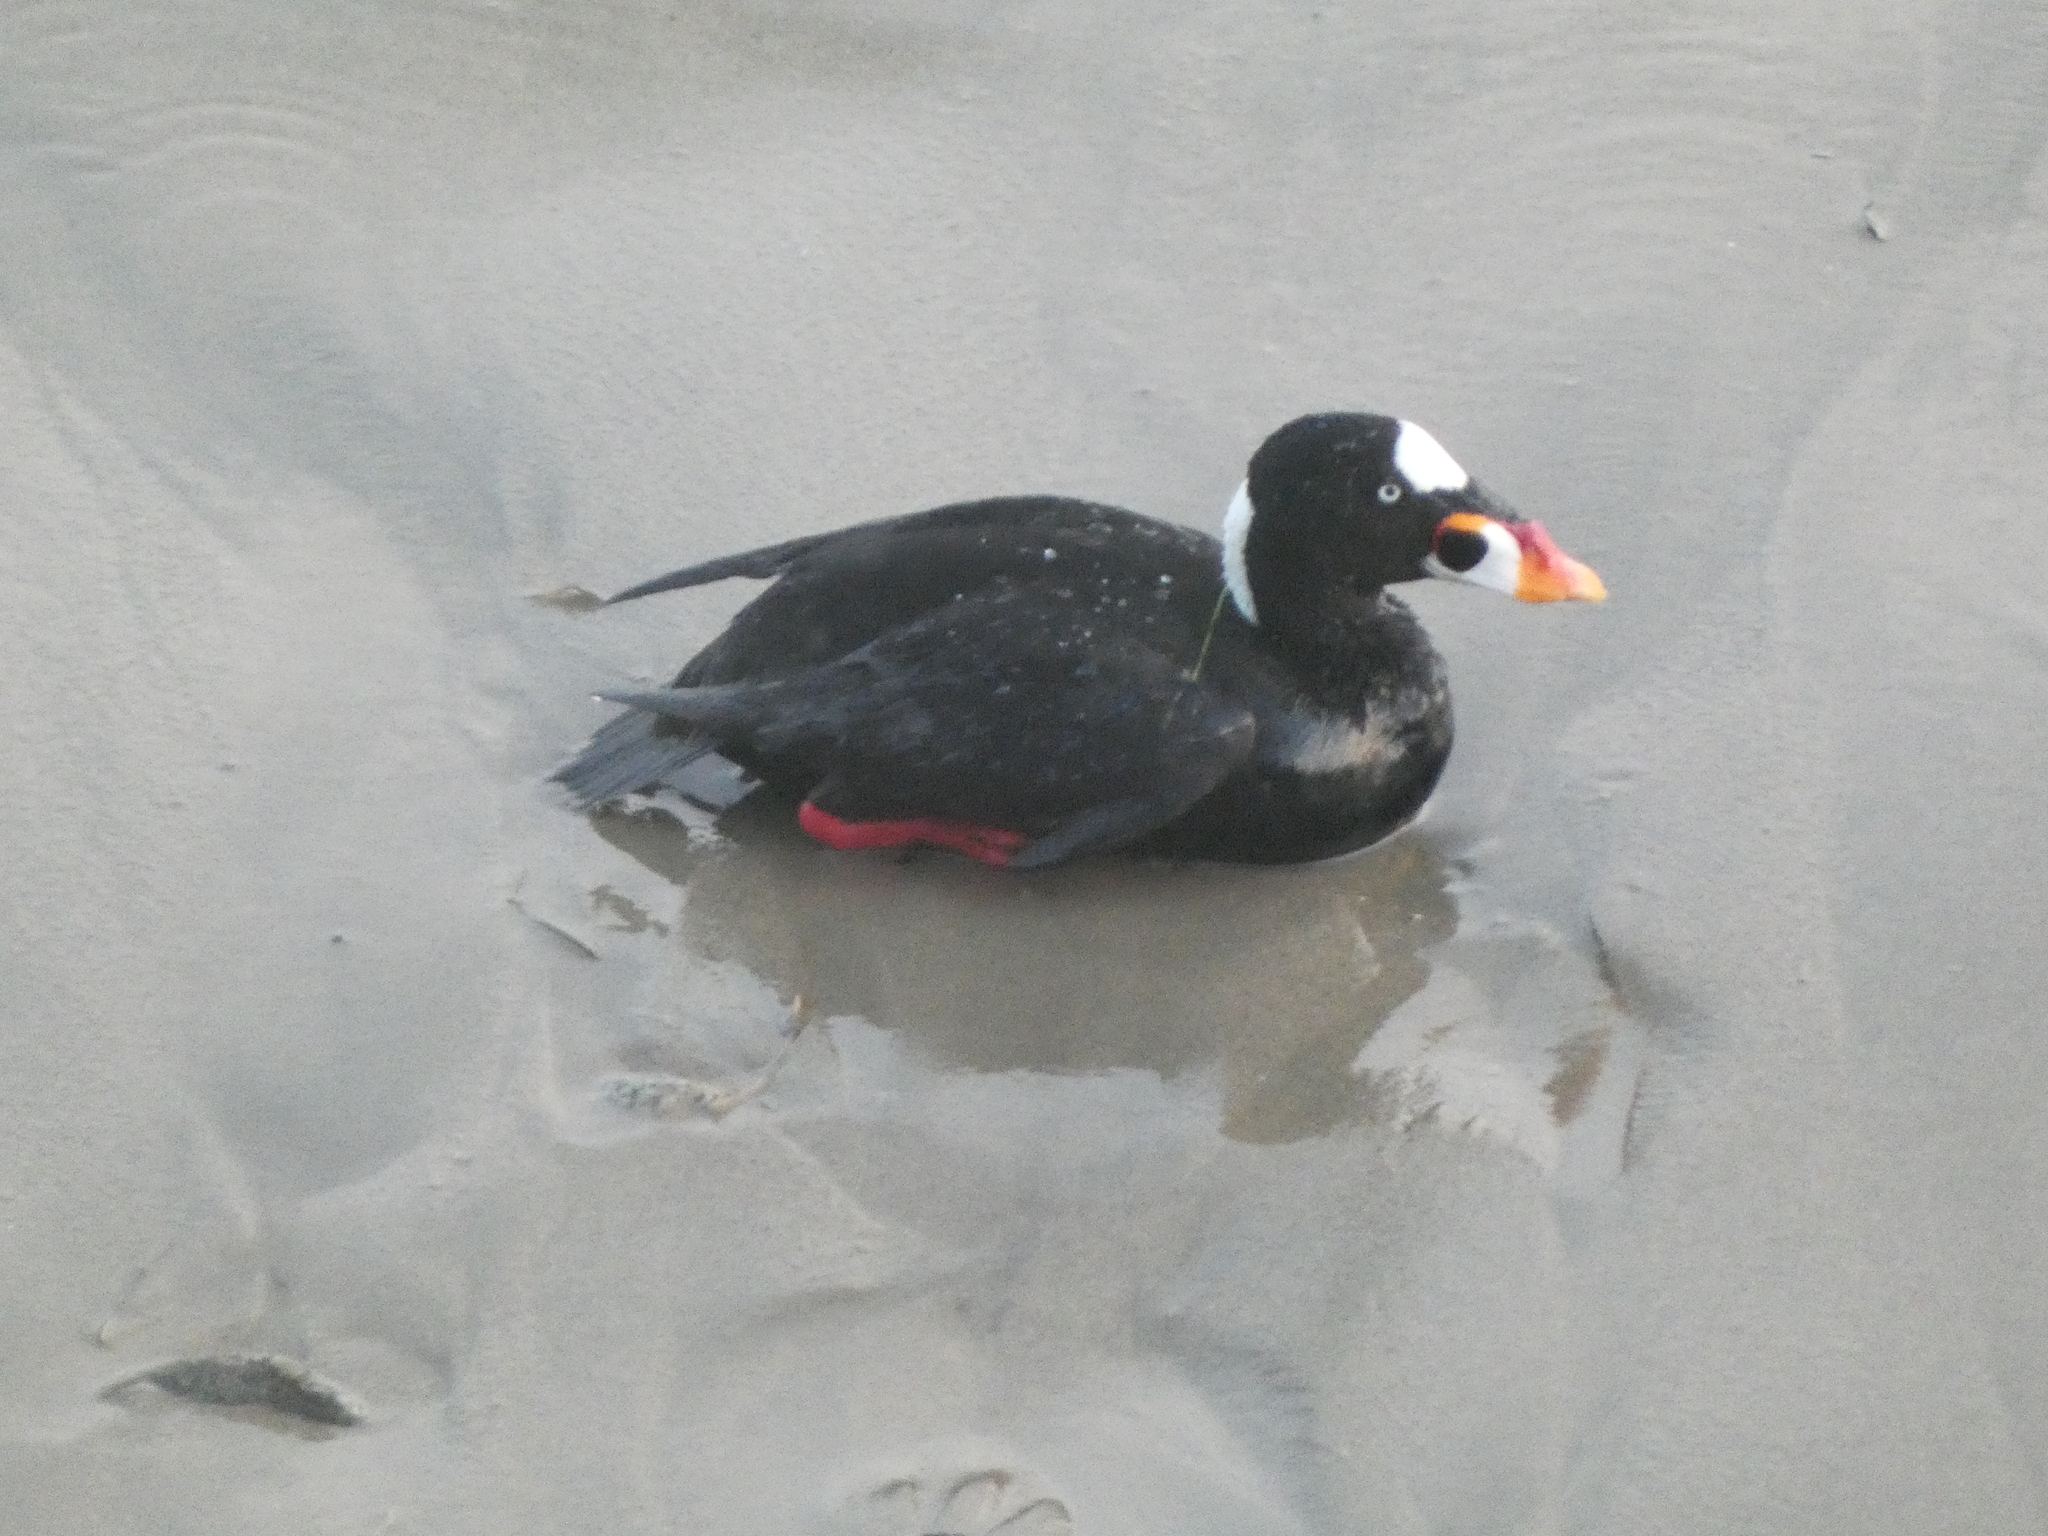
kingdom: Animalia
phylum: Chordata
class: Aves
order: Anseriformes
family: Anatidae
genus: Melanitta
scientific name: Melanitta perspicillata
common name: Surf scoter
